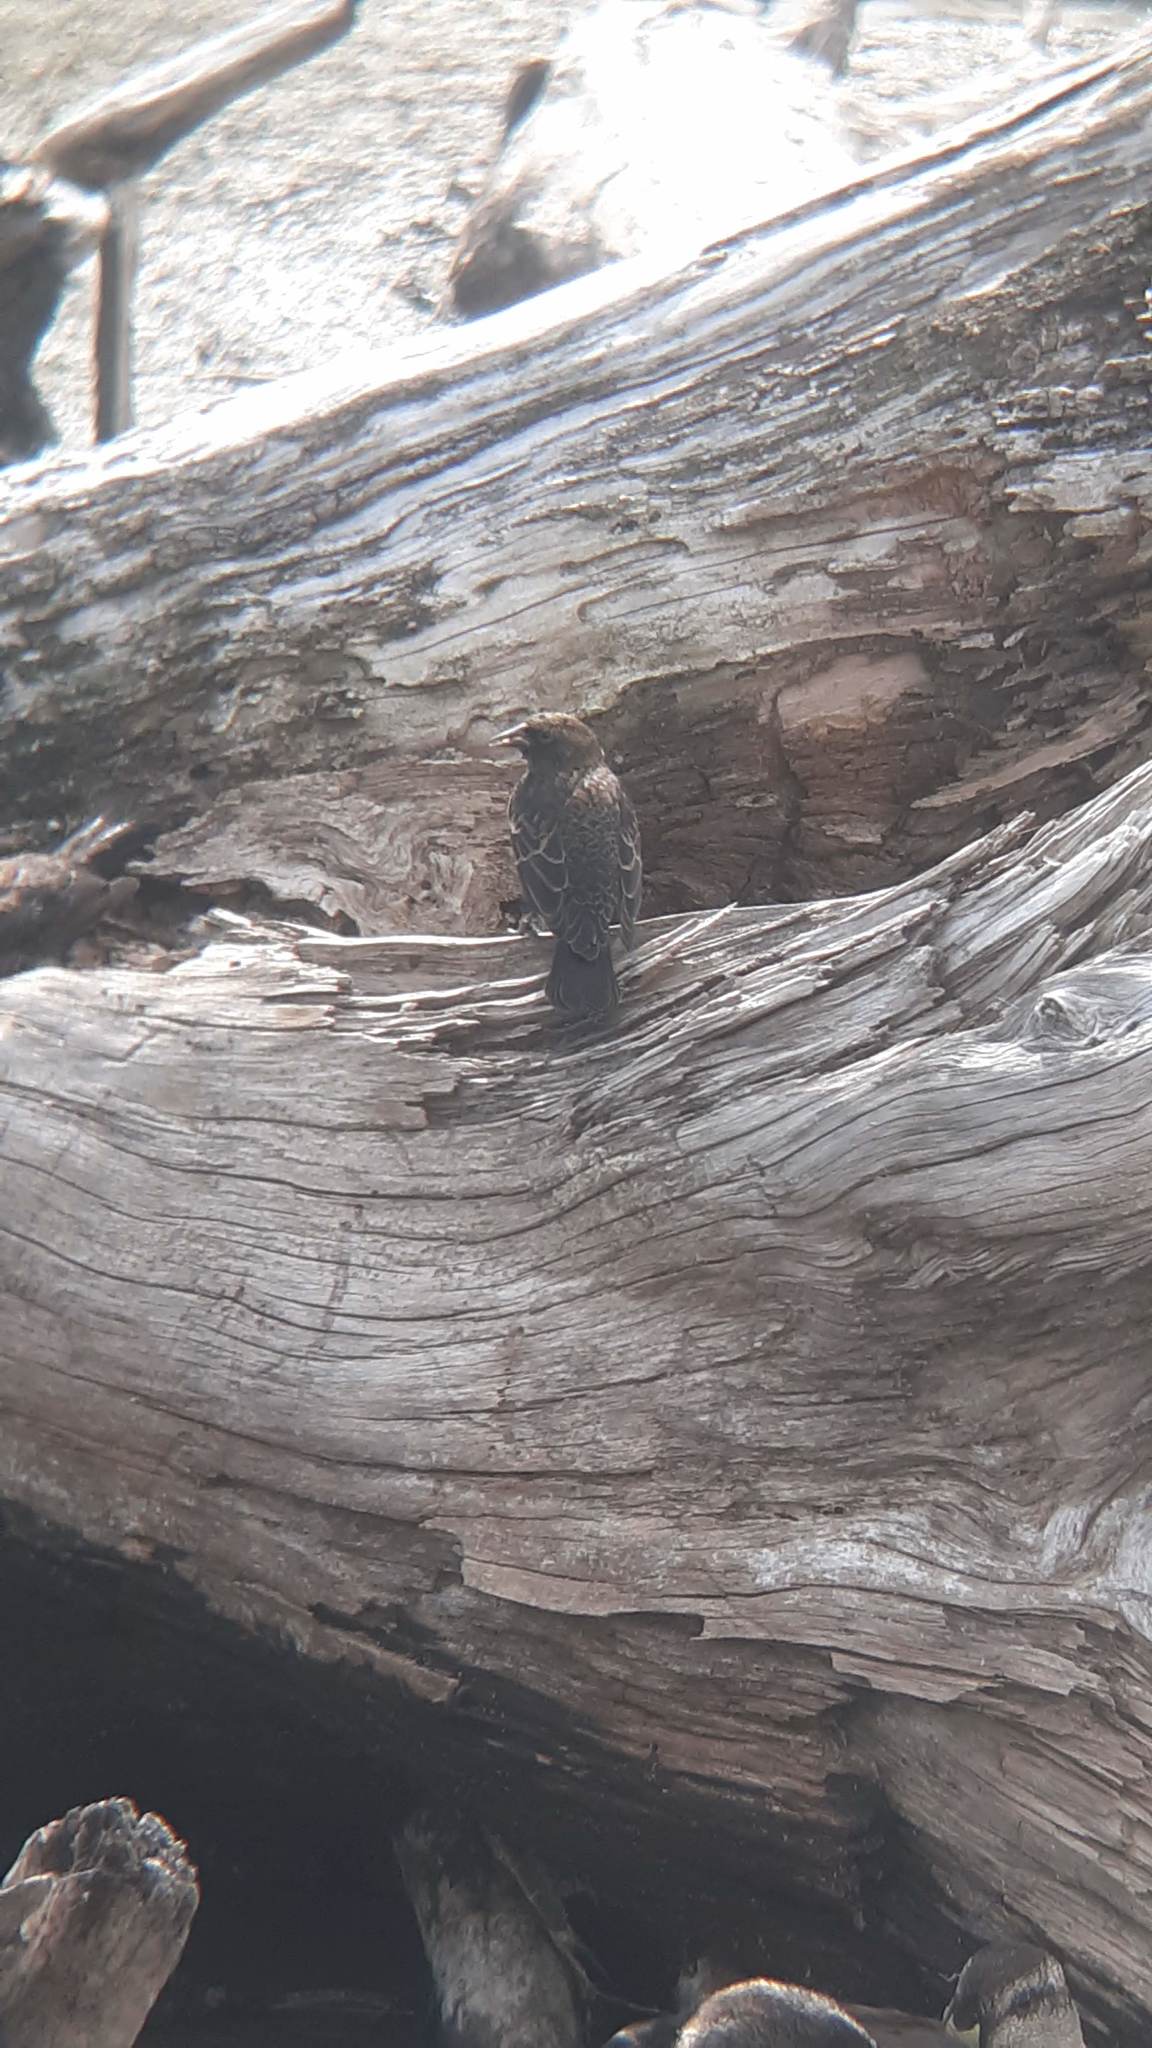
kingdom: Animalia
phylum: Chordata
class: Aves
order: Passeriformes
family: Icteridae
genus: Agelaius
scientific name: Agelaius phoeniceus
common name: Red-winged blackbird
